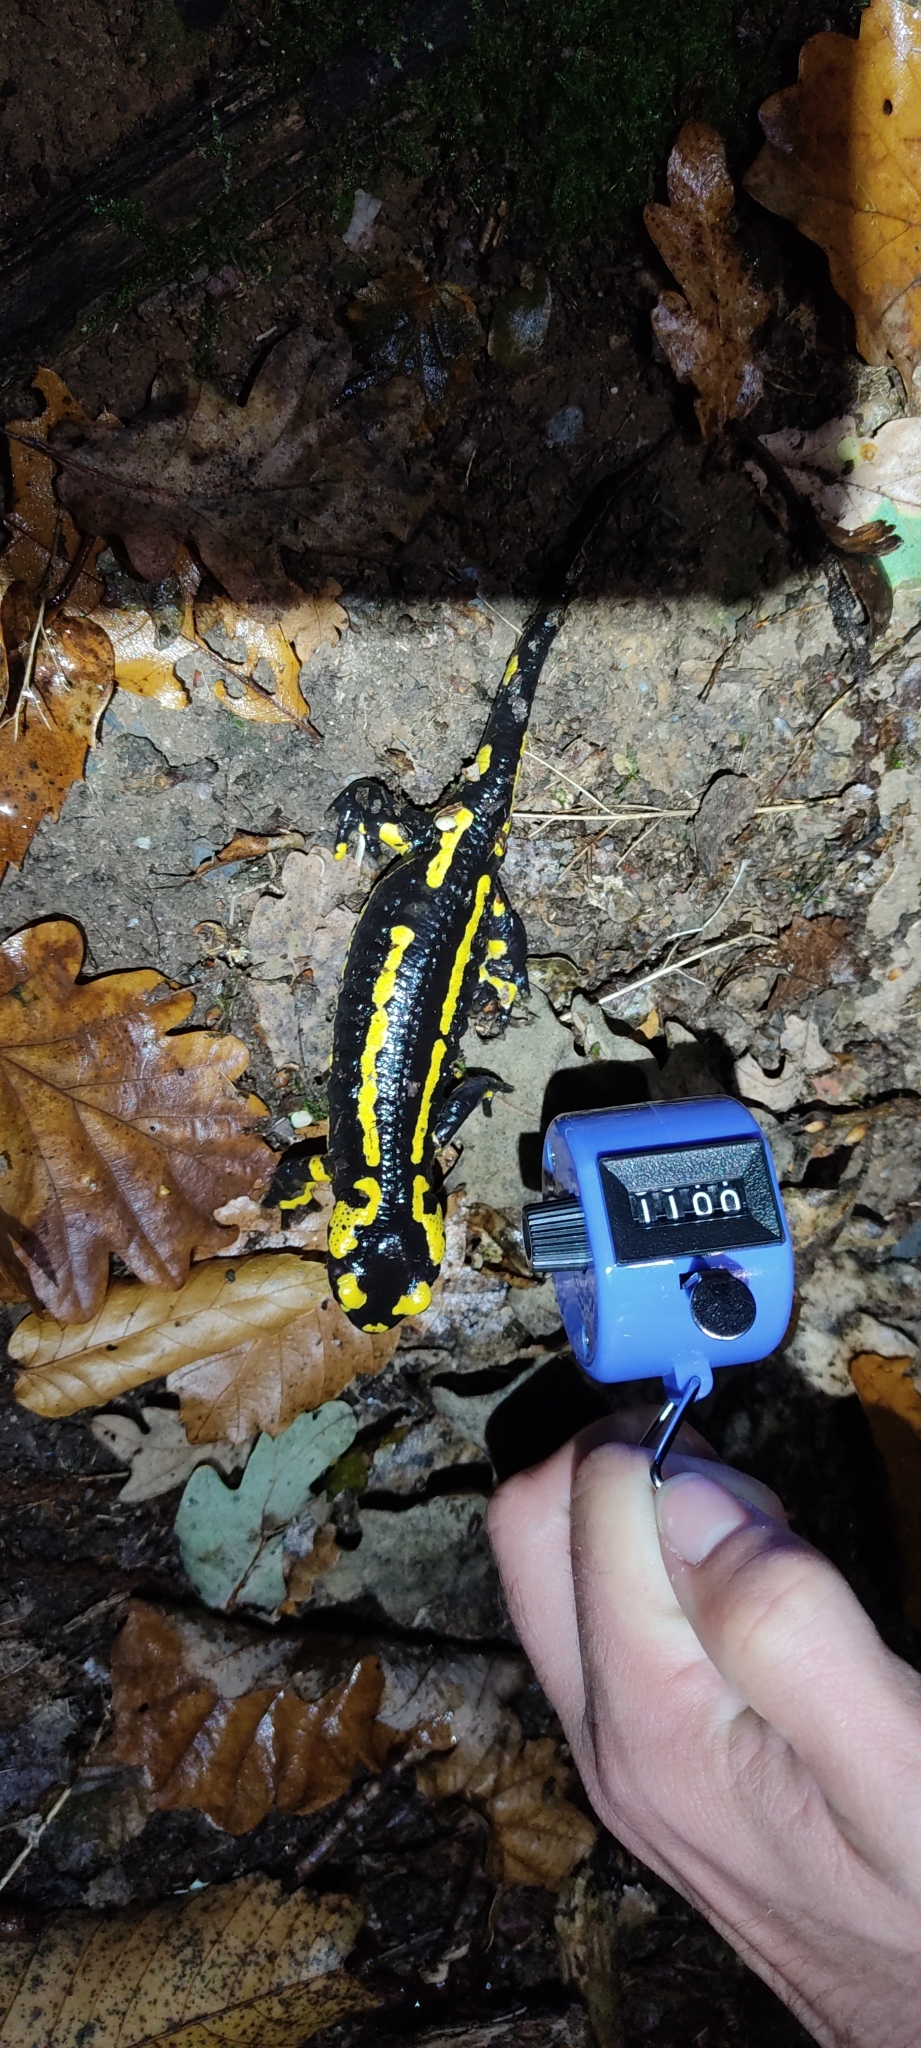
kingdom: Animalia
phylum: Chordata
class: Amphibia
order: Caudata
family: Salamandridae
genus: Salamandra
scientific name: Salamandra salamandra
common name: Fire salamander
